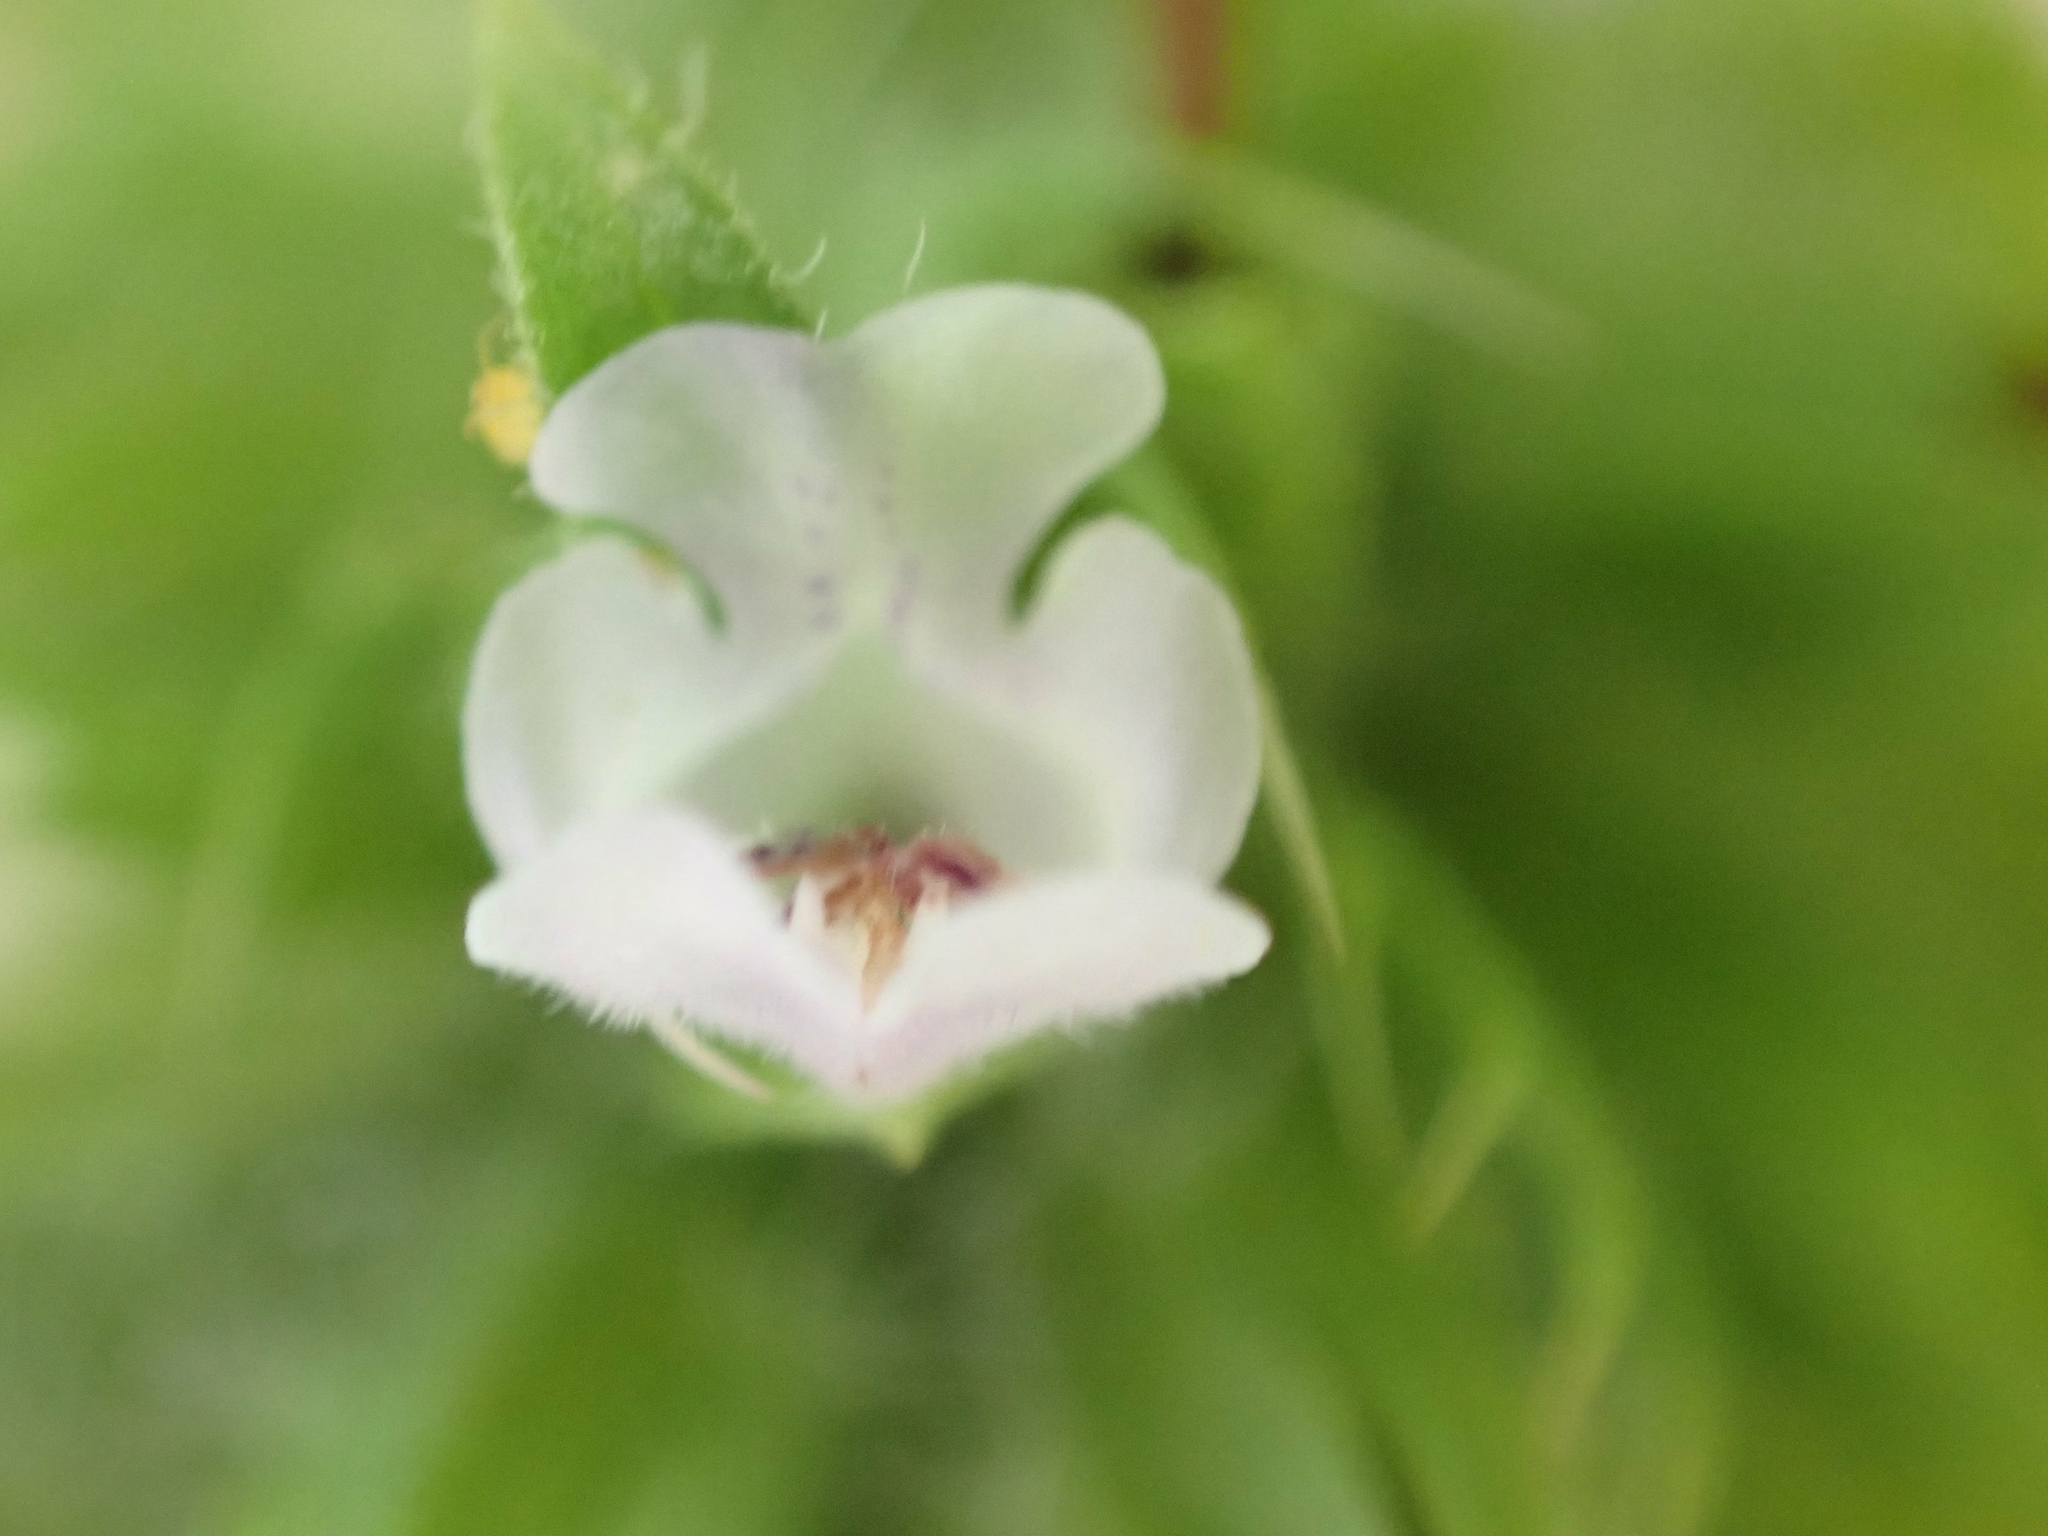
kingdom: Plantae
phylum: Tracheophyta
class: Magnoliopsida
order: Lamiales
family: Lamiaceae
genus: Dracocephalum
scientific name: Dracocephalum parviflorum
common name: American dragonhead
